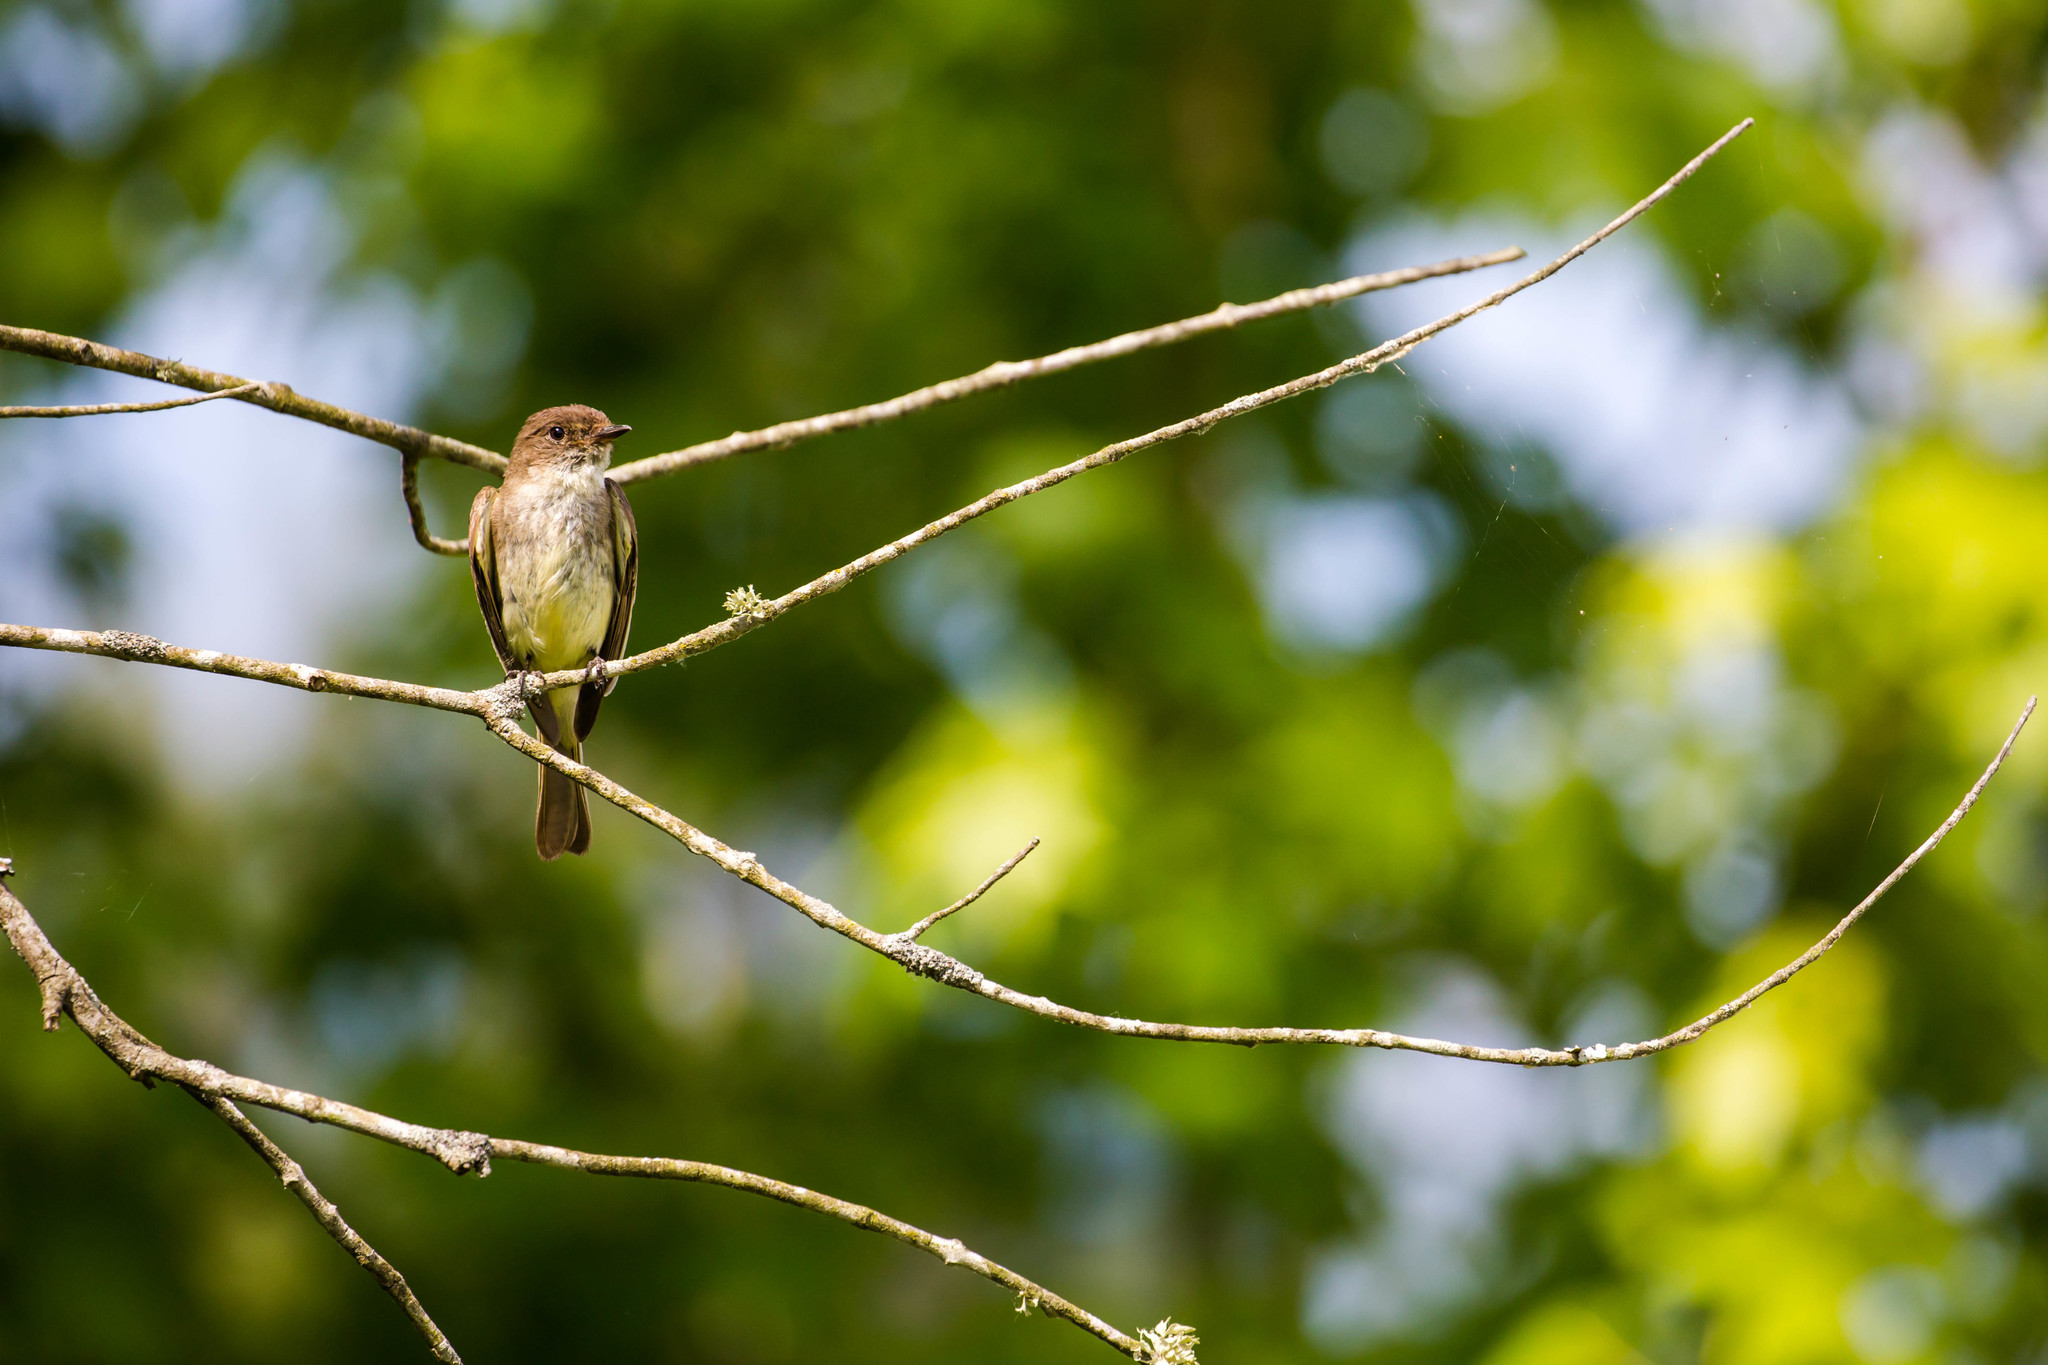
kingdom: Animalia
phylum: Chordata
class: Aves
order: Passeriformes
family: Tyrannidae
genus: Sayornis
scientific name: Sayornis phoebe
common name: Eastern phoebe
